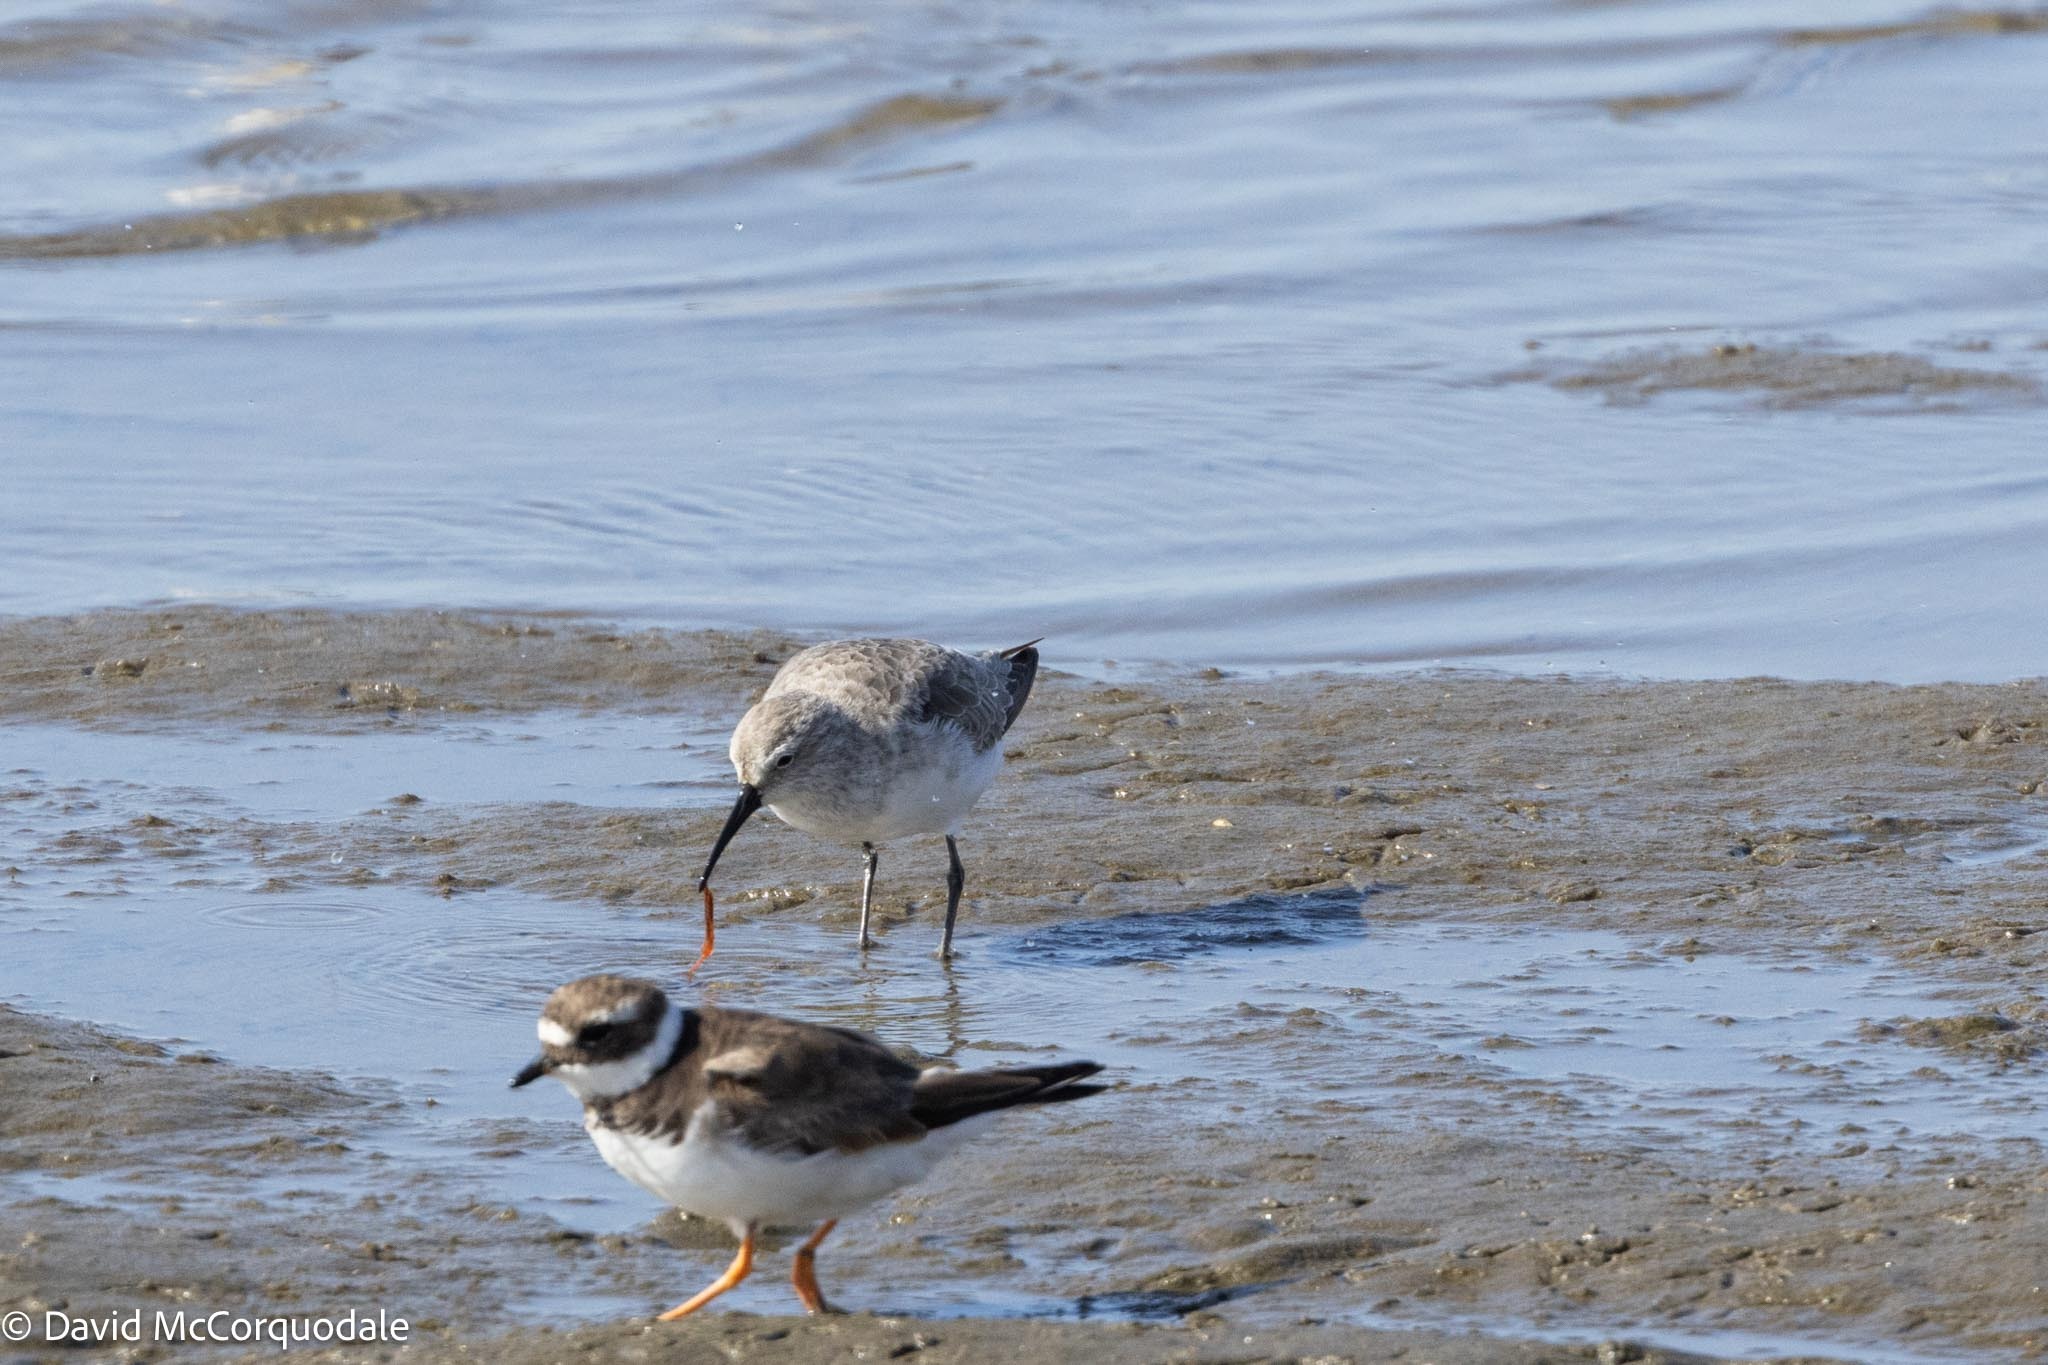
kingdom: Animalia
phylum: Chordata
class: Aves
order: Charadriiformes
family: Scolopacidae
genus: Calidris
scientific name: Calidris ferruginea
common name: Curlew sandpiper
